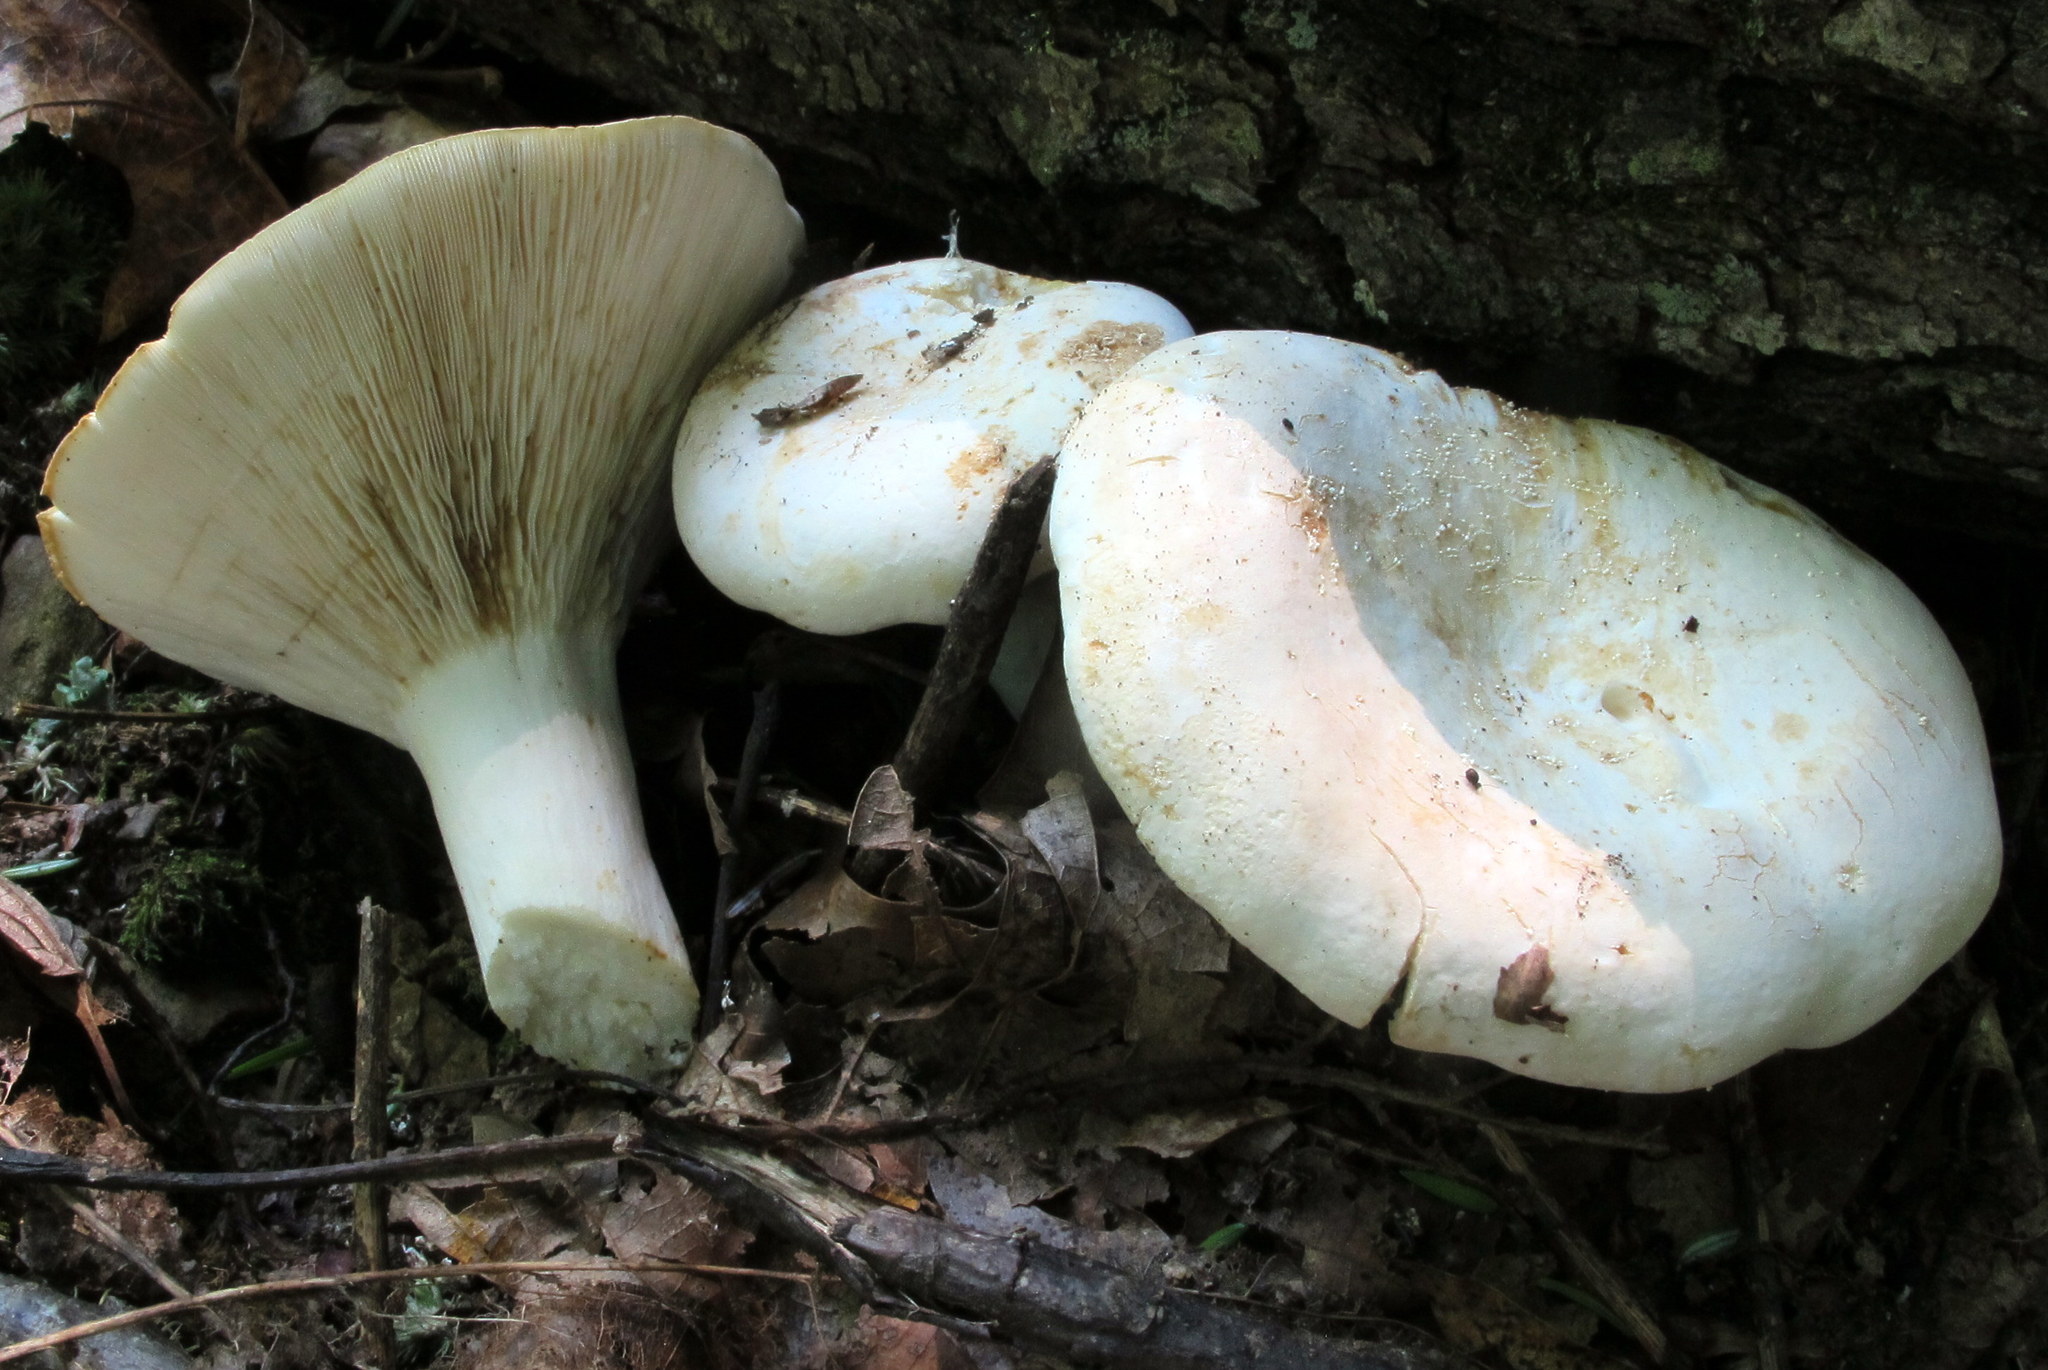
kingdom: Fungi
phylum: Basidiomycota
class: Agaricomycetes
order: Russulales
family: Russulaceae
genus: Lactifluus
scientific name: Lactifluus piperatus
